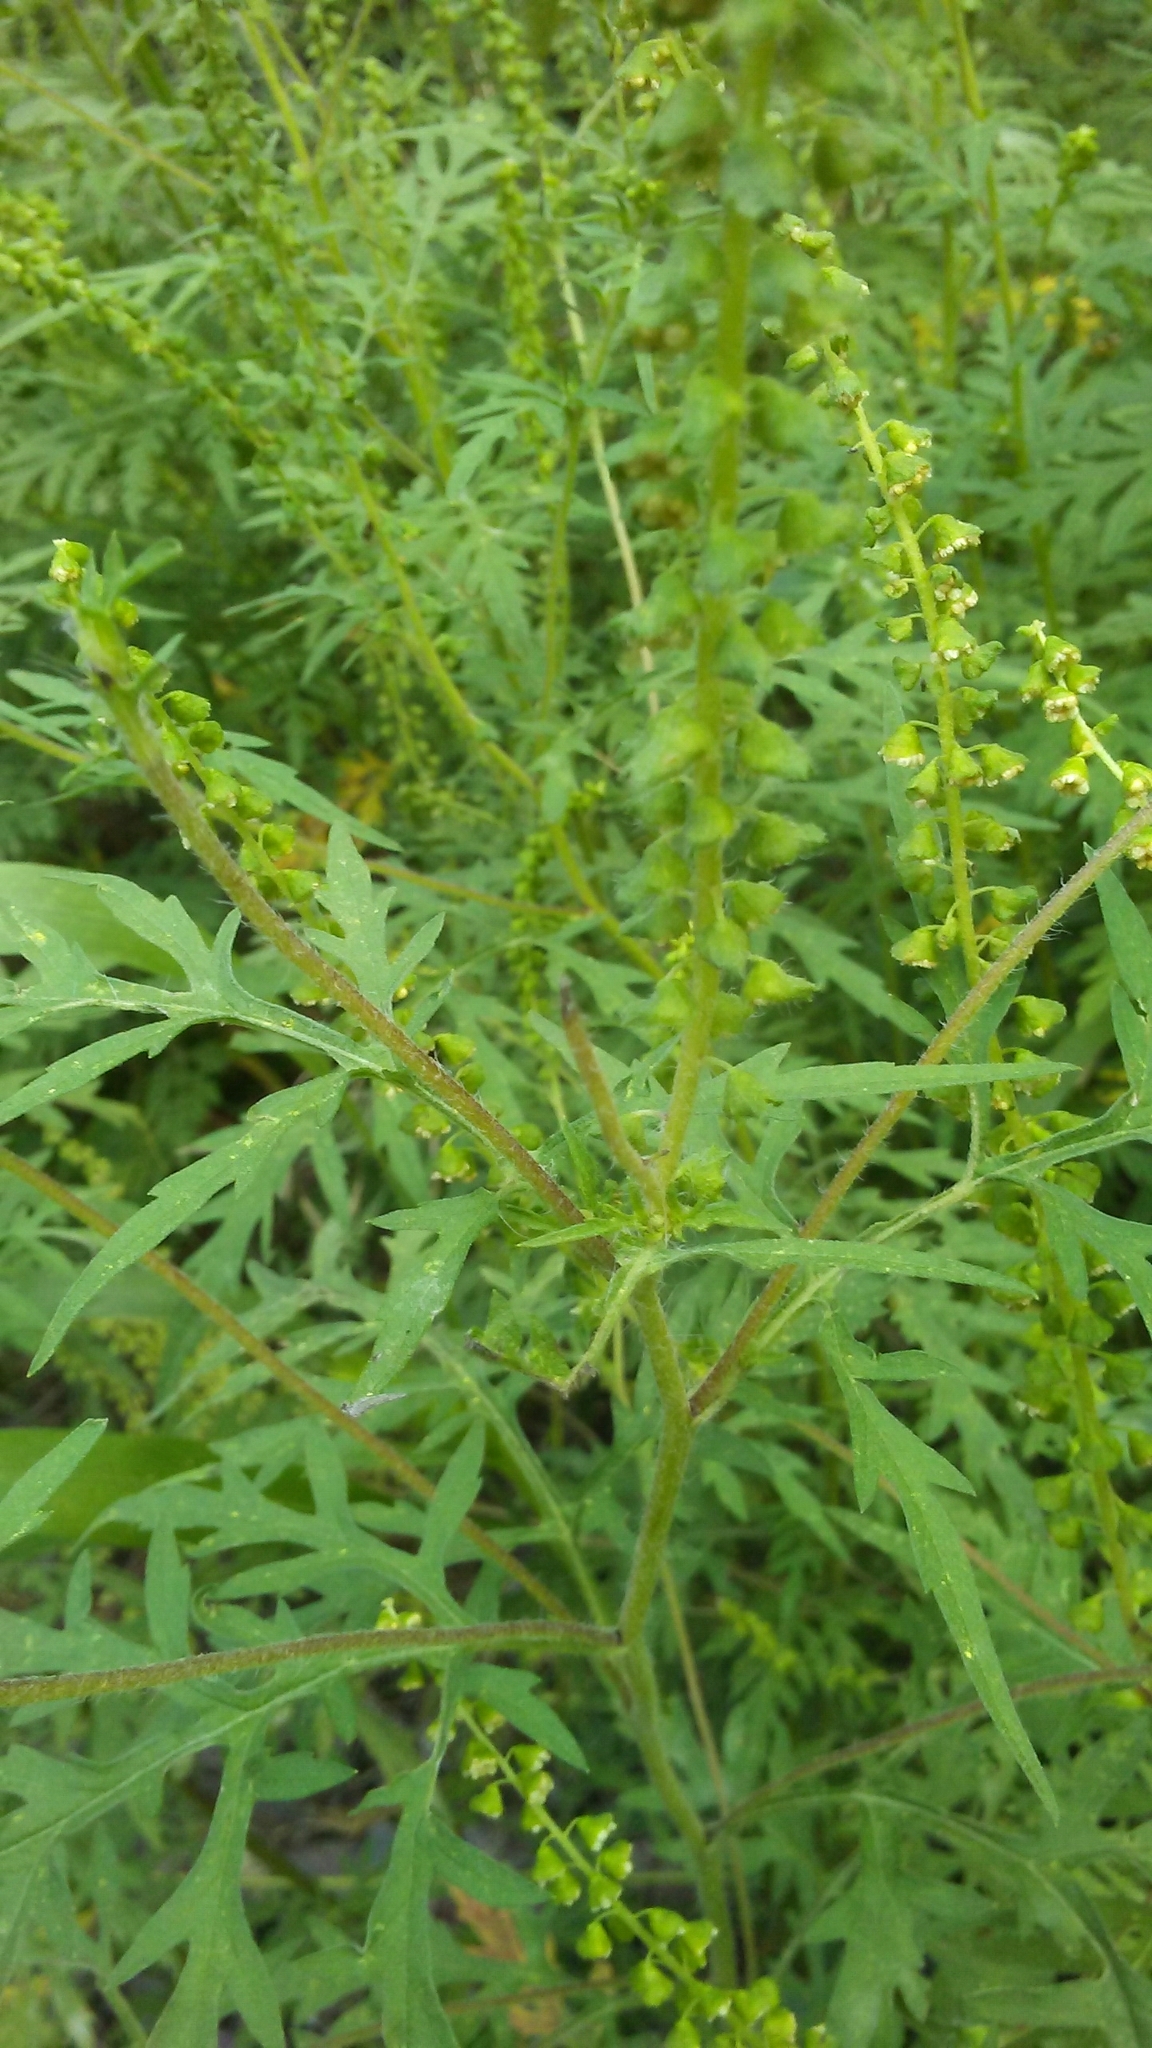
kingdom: Plantae
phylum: Tracheophyta
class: Magnoliopsida
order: Asterales
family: Asteraceae
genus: Ambrosia
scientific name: Ambrosia artemisiifolia
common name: Annual ragweed
